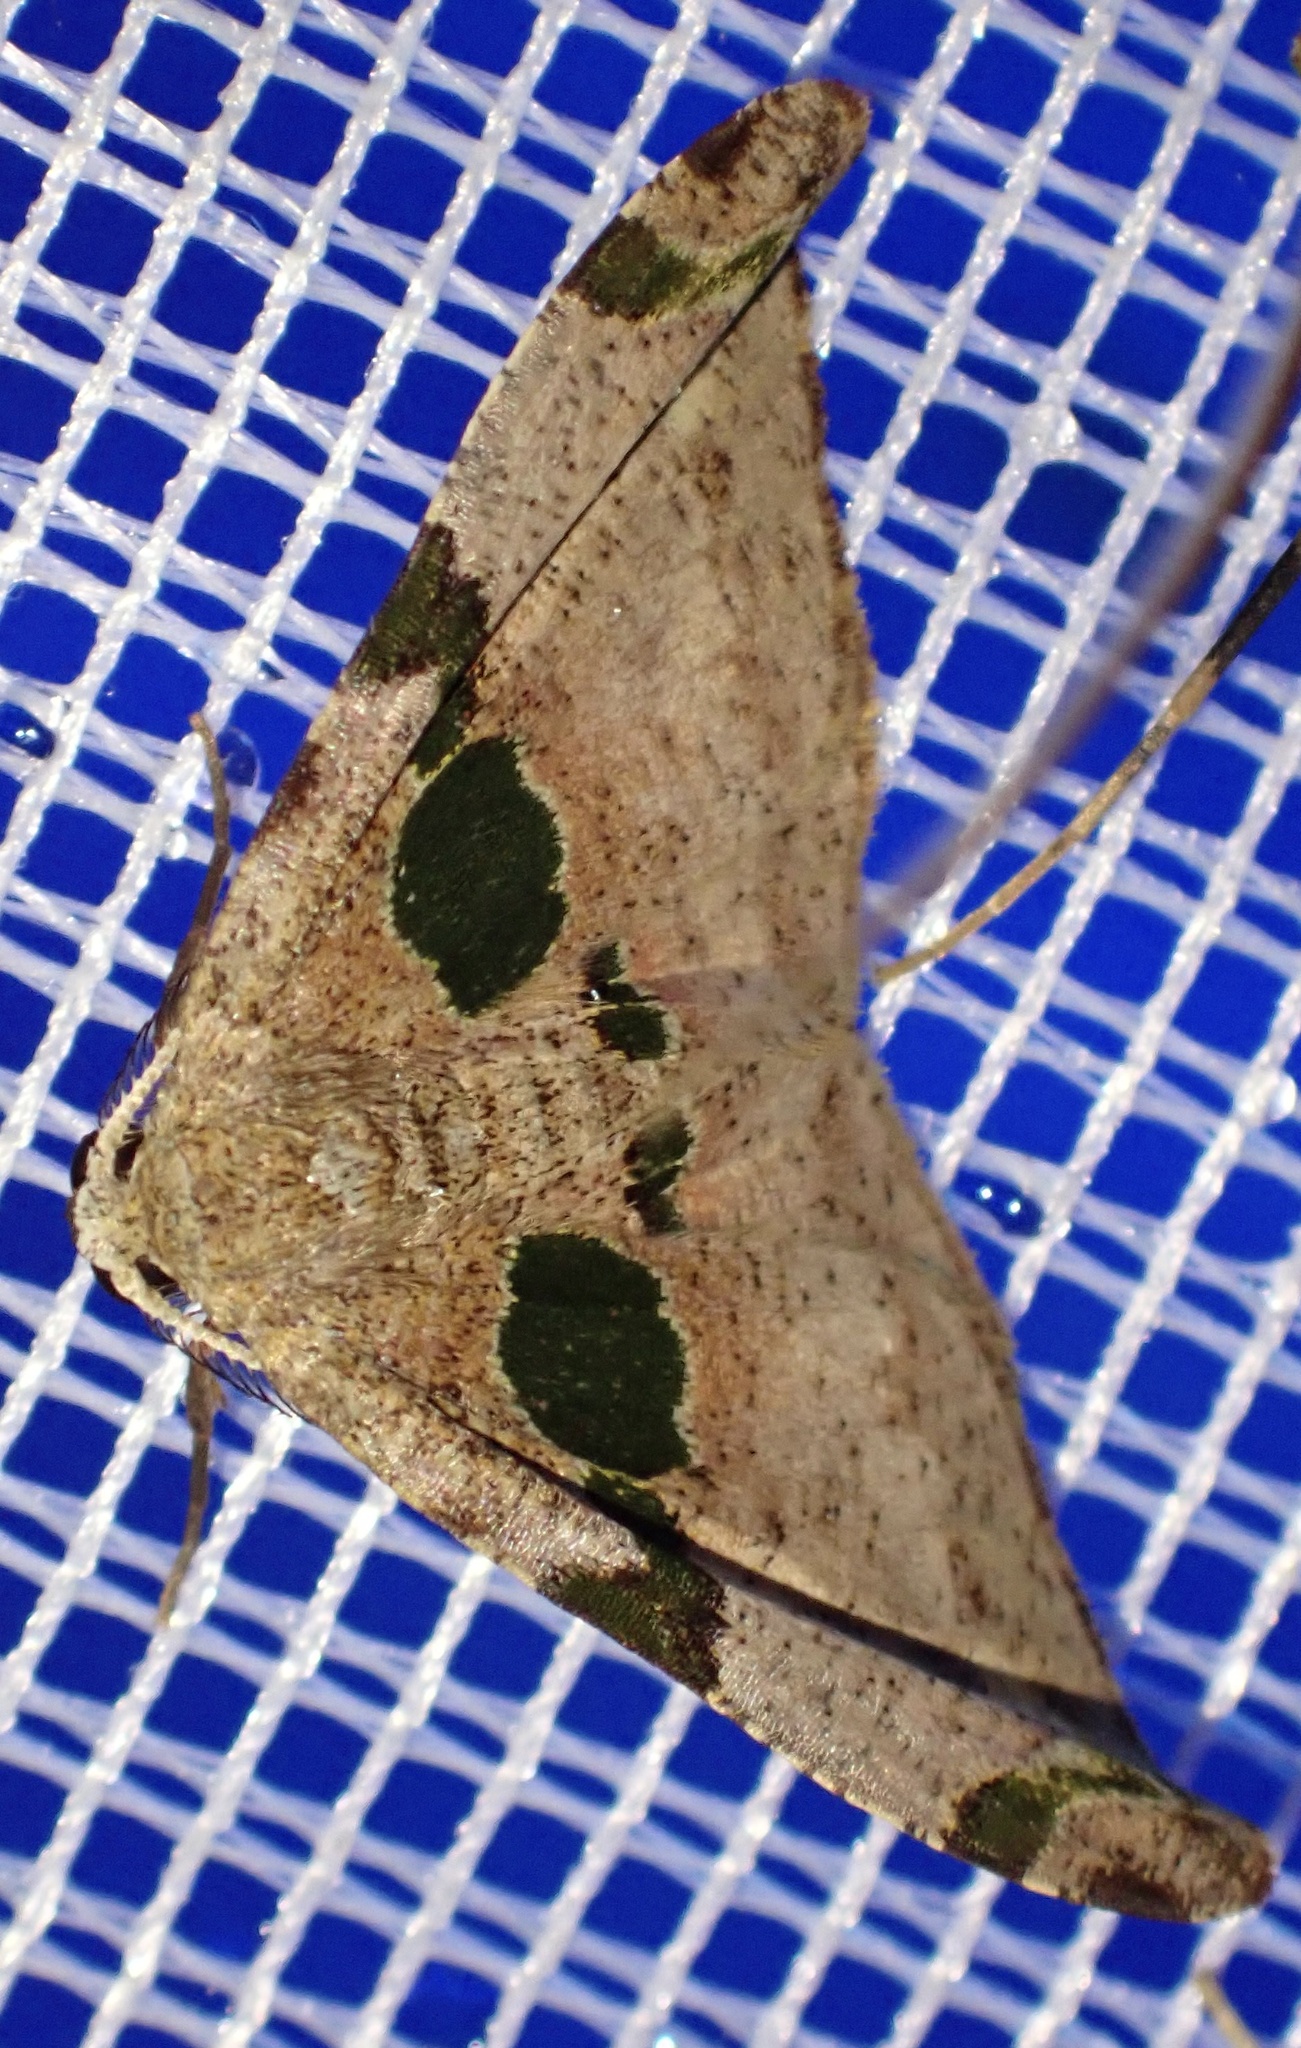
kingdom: Animalia
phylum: Arthropoda
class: Insecta
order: Lepidoptera
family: Geometridae
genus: Achrosis
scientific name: Achrosis pulchricolor
